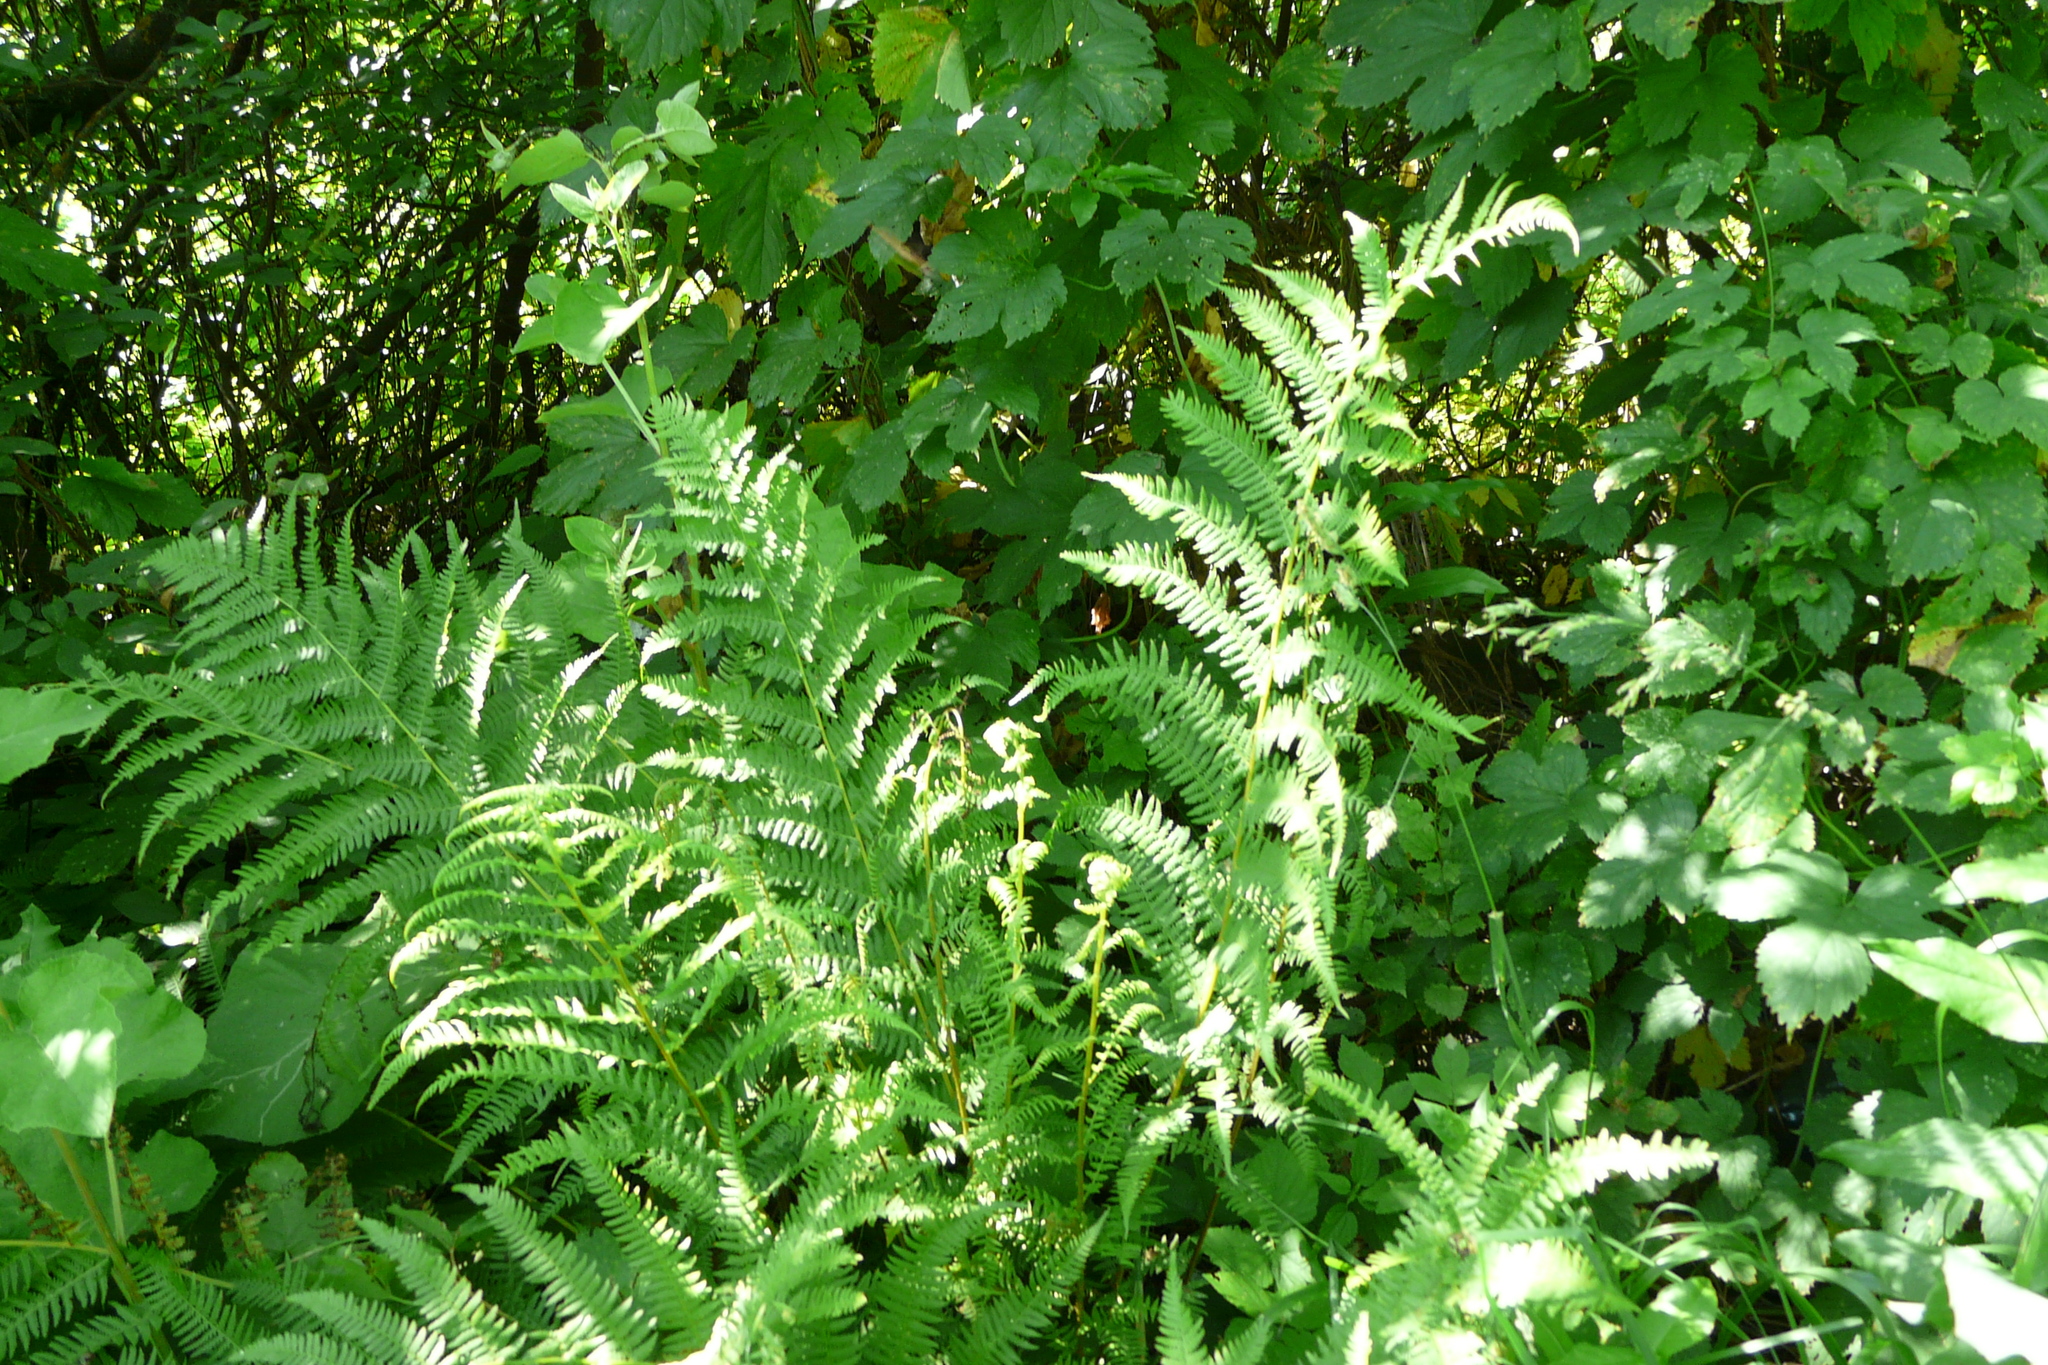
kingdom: Plantae
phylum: Tracheophyta
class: Polypodiopsida
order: Polypodiales
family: Athyriaceae
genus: Athyrium
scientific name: Athyrium filix-femina
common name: Lady fern
